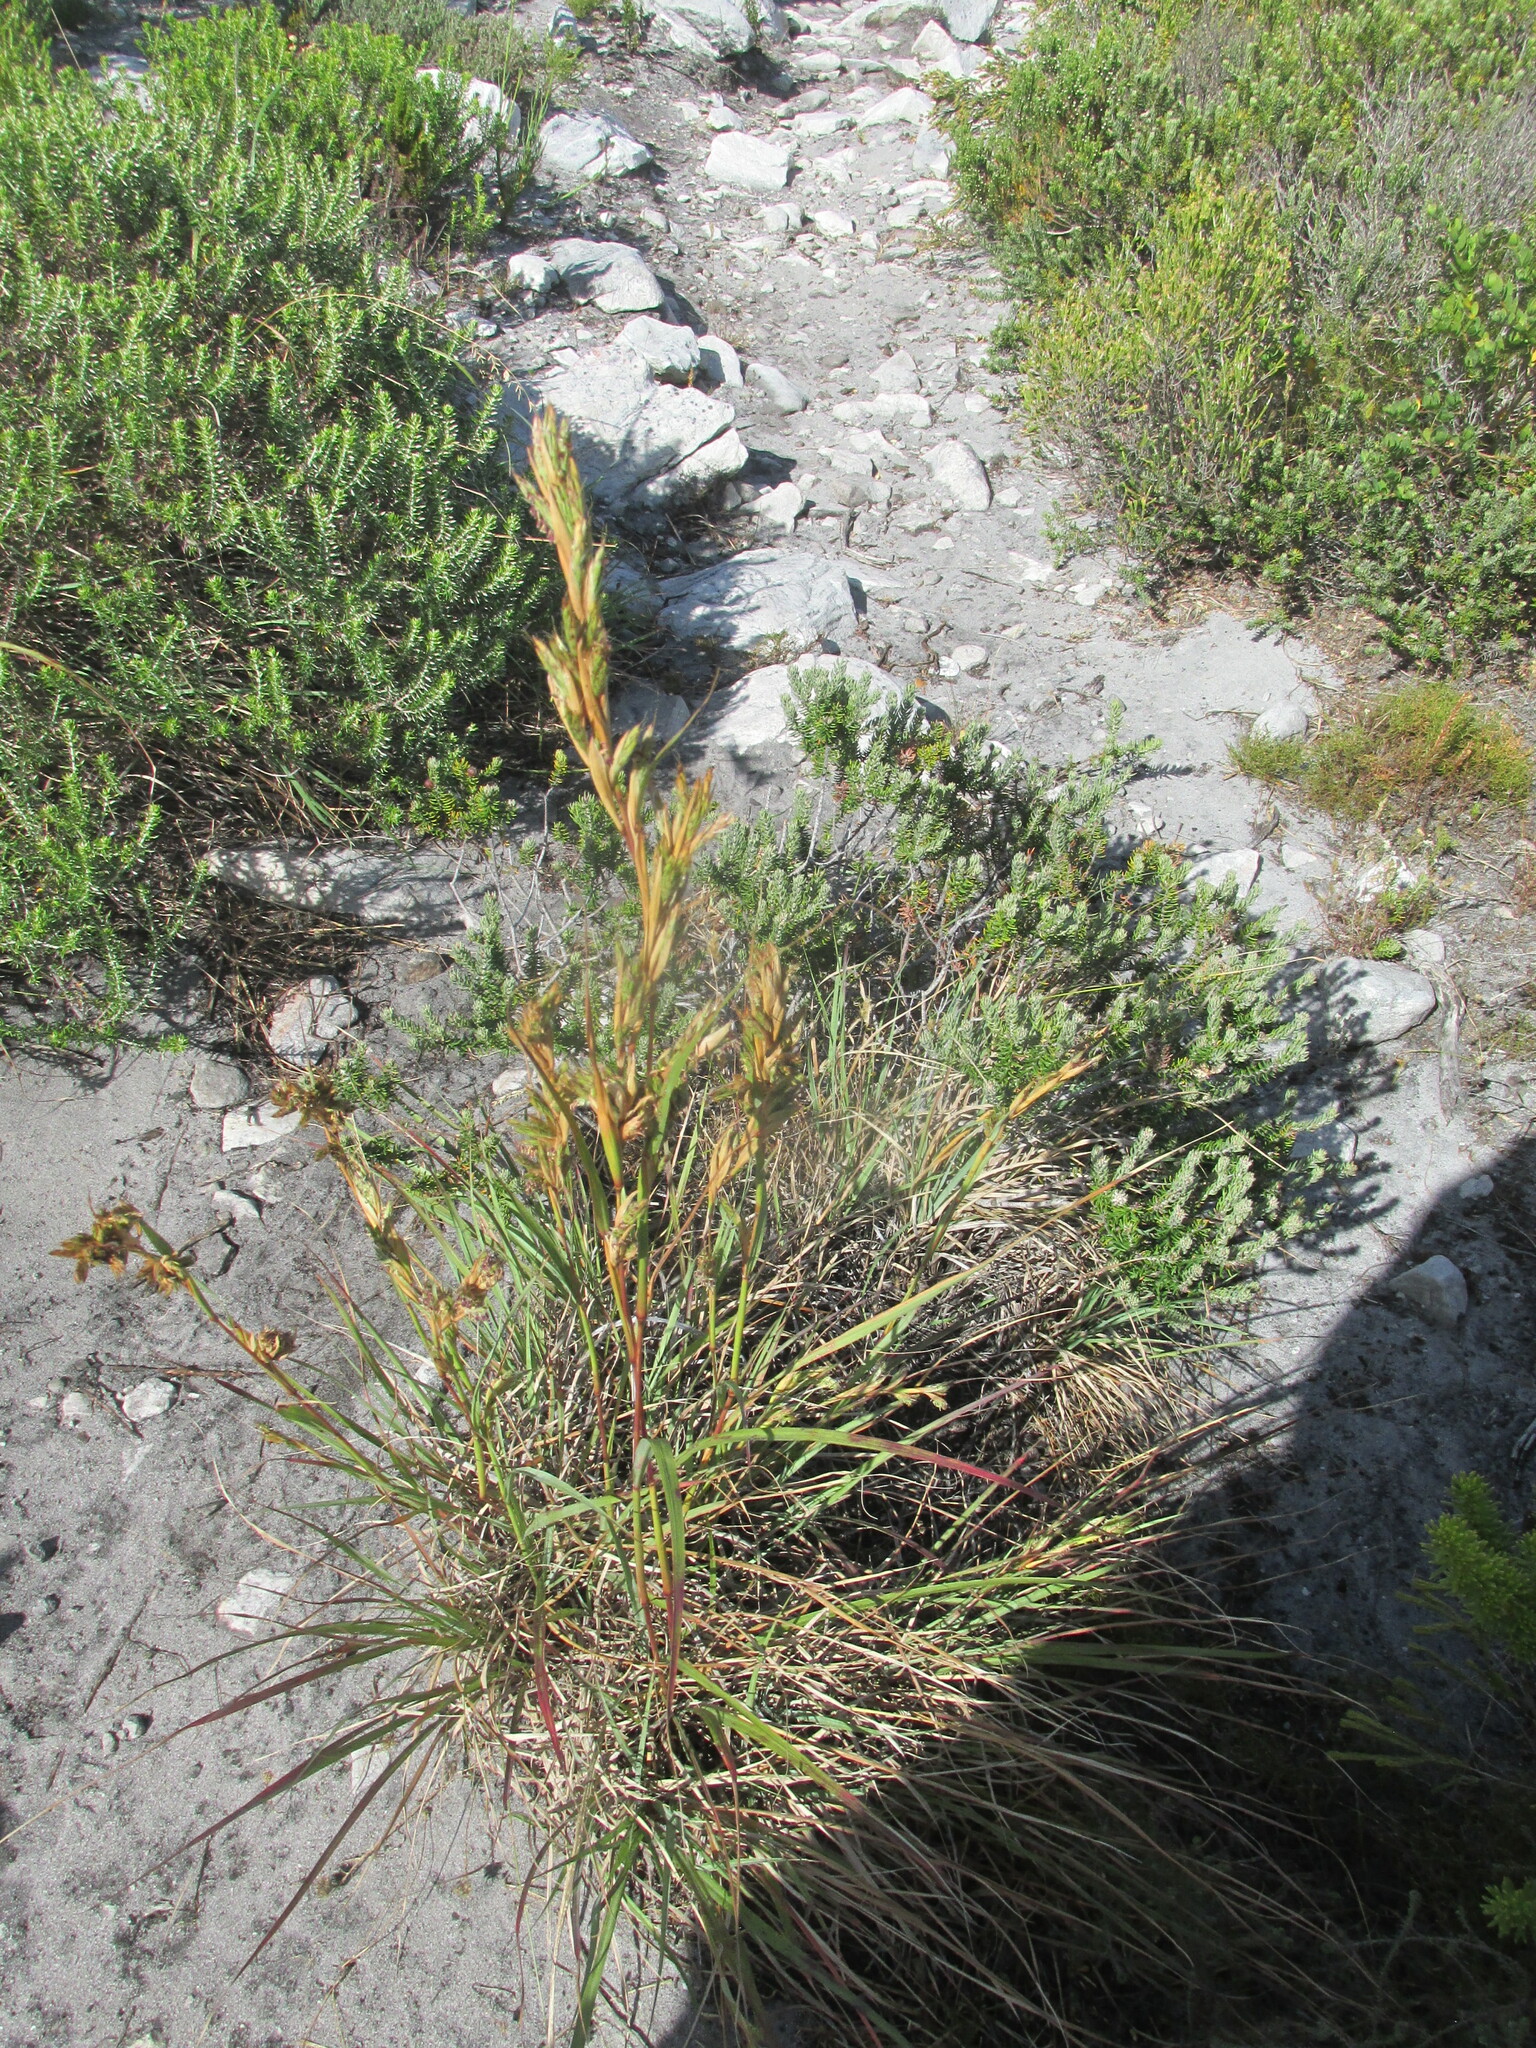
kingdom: Plantae
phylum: Tracheophyta
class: Liliopsida
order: Poales
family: Cyperaceae
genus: Tetraria
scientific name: Tetraria thermalis
